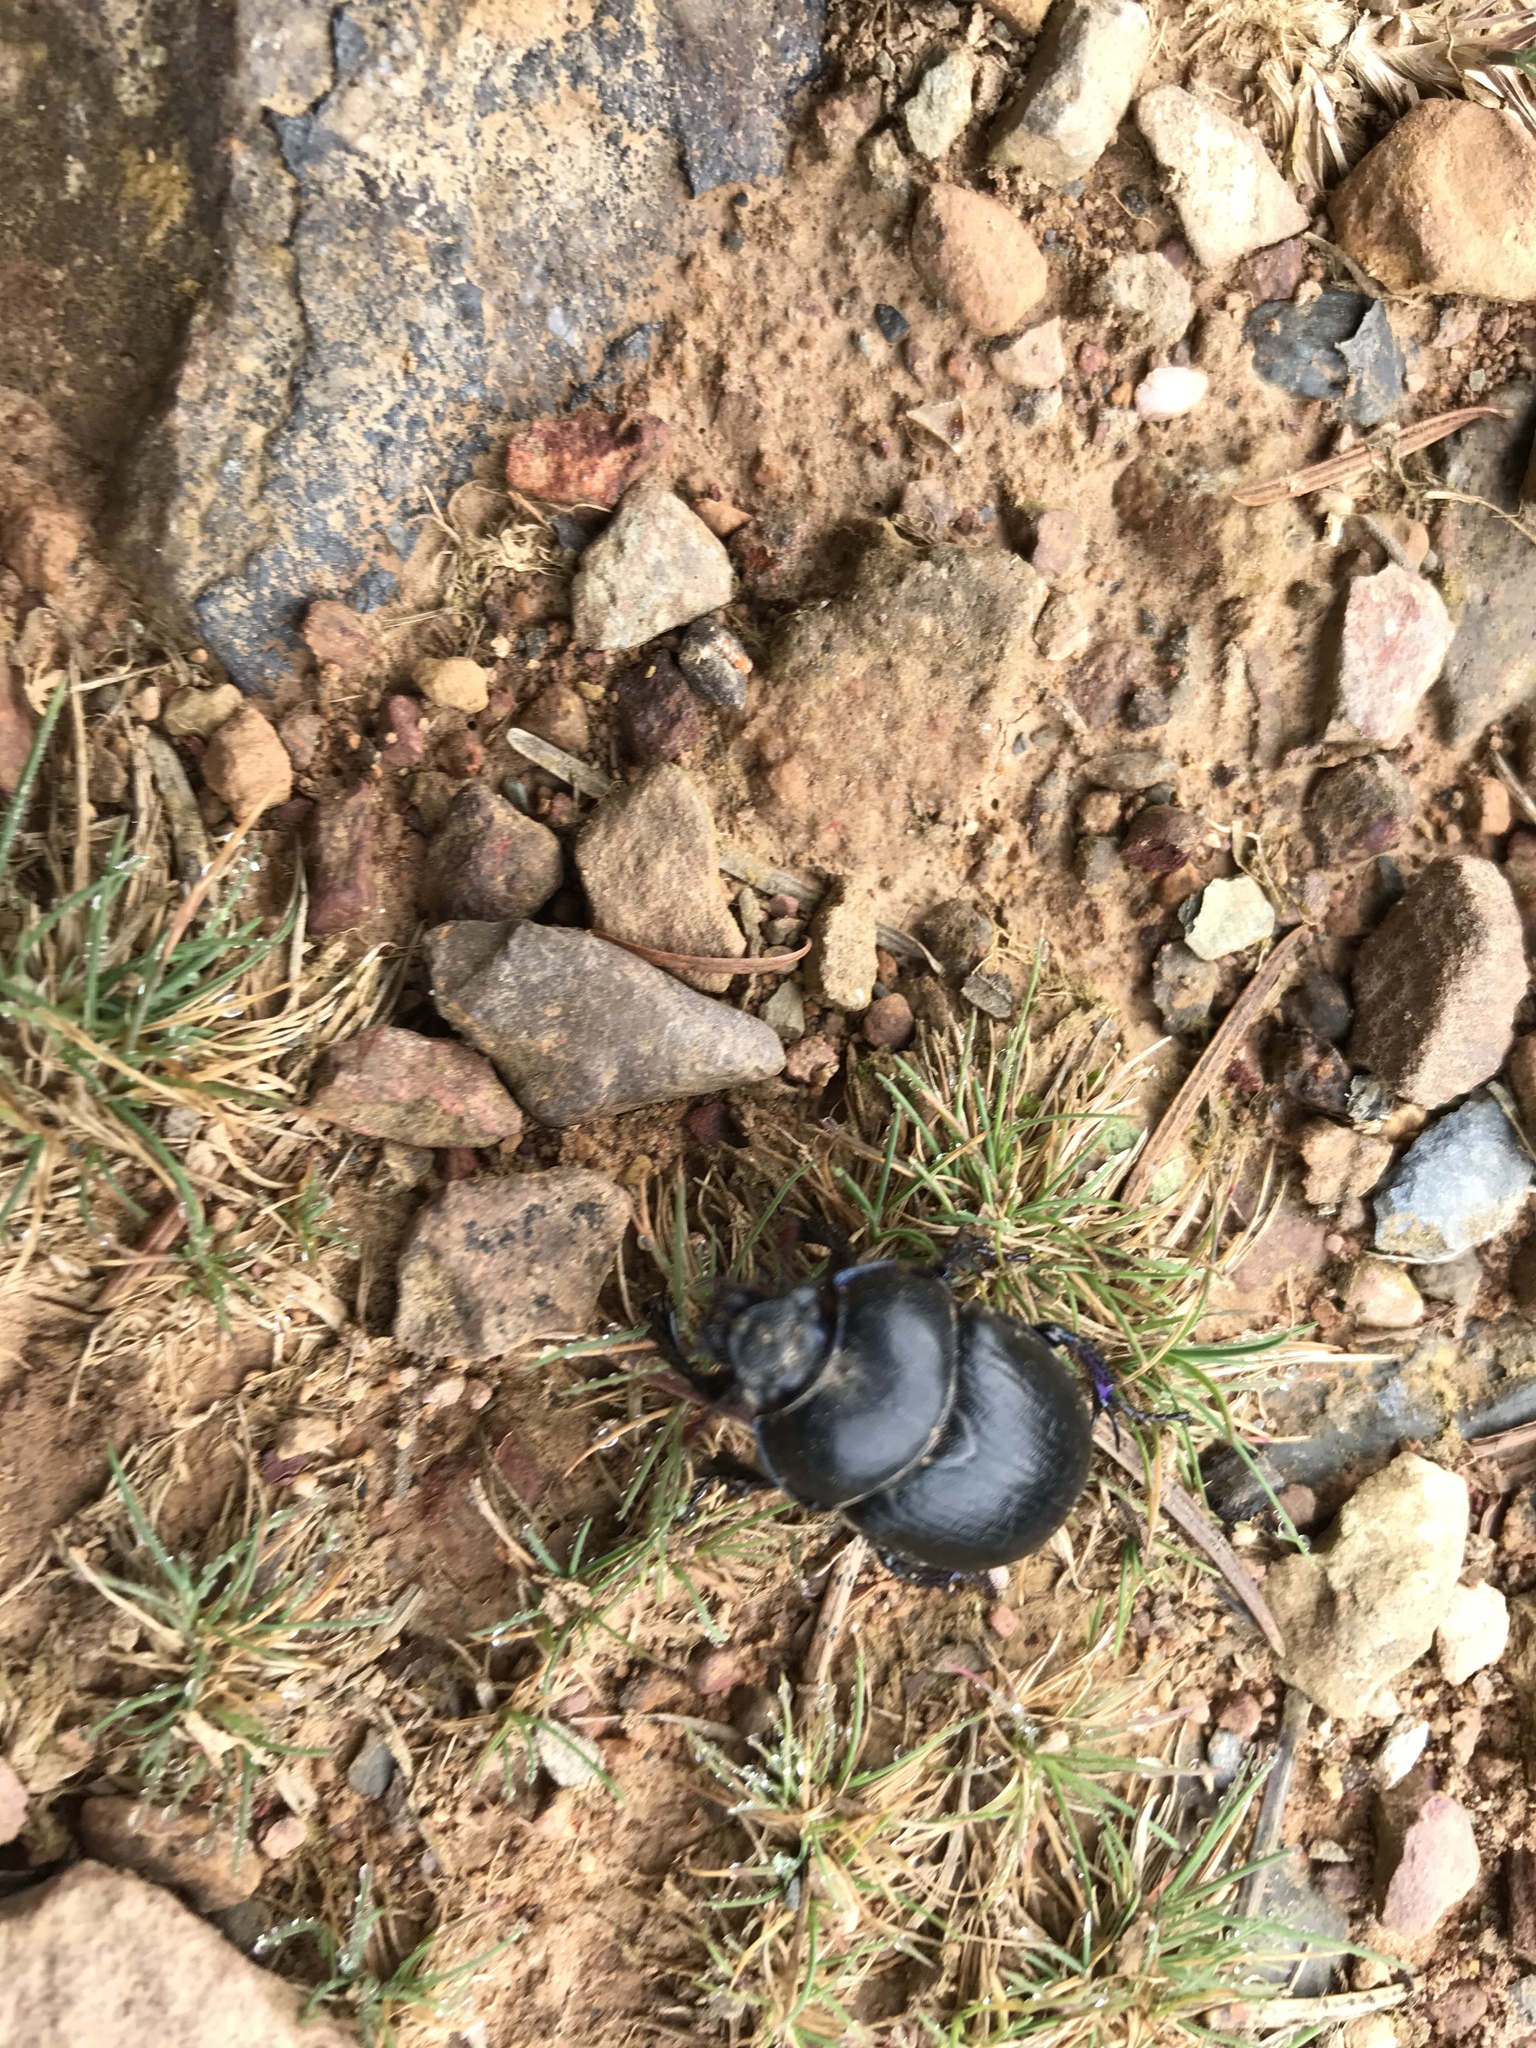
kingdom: Animalia
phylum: Arthropoda
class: Insecta
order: Coleoptera
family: Geotrupidae
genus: Anoplotrupes
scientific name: Anoplotrupes stercorosus
